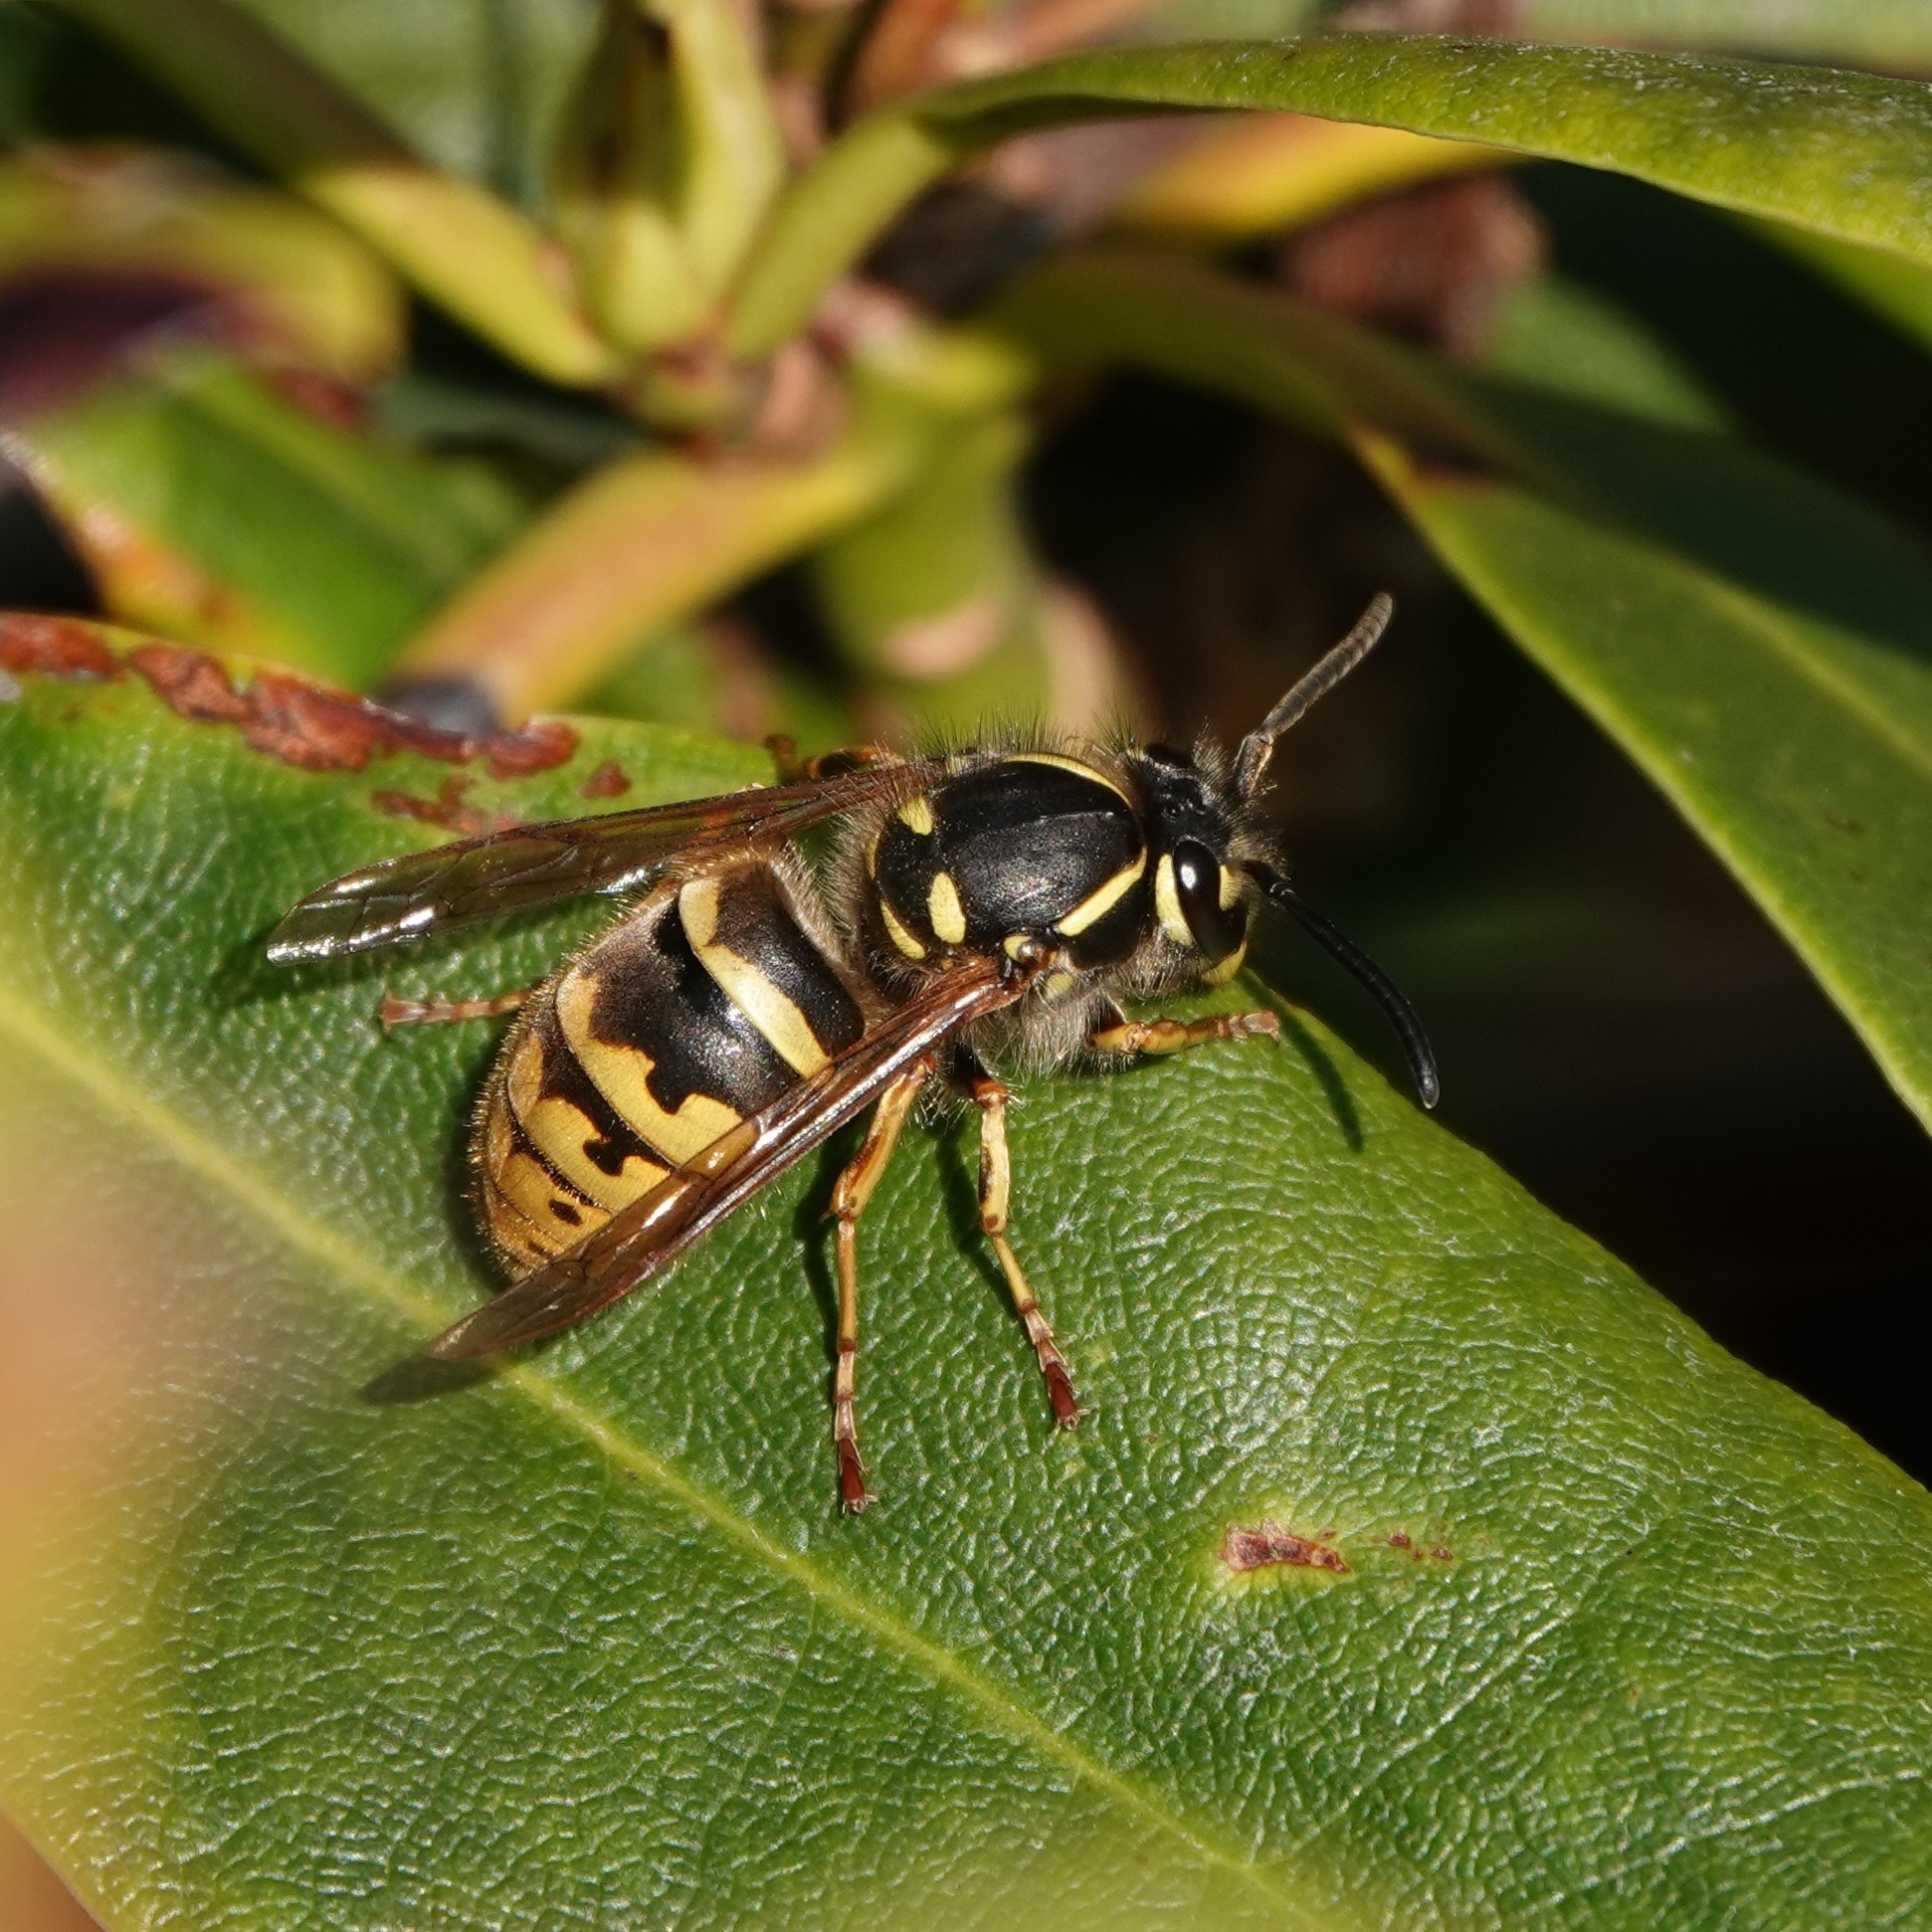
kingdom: Animalia
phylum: Arthropoda
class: Insecta
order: Hymenoptera
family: Vespidae
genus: Vespula
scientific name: Vespula vulgaris
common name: Common wasp
